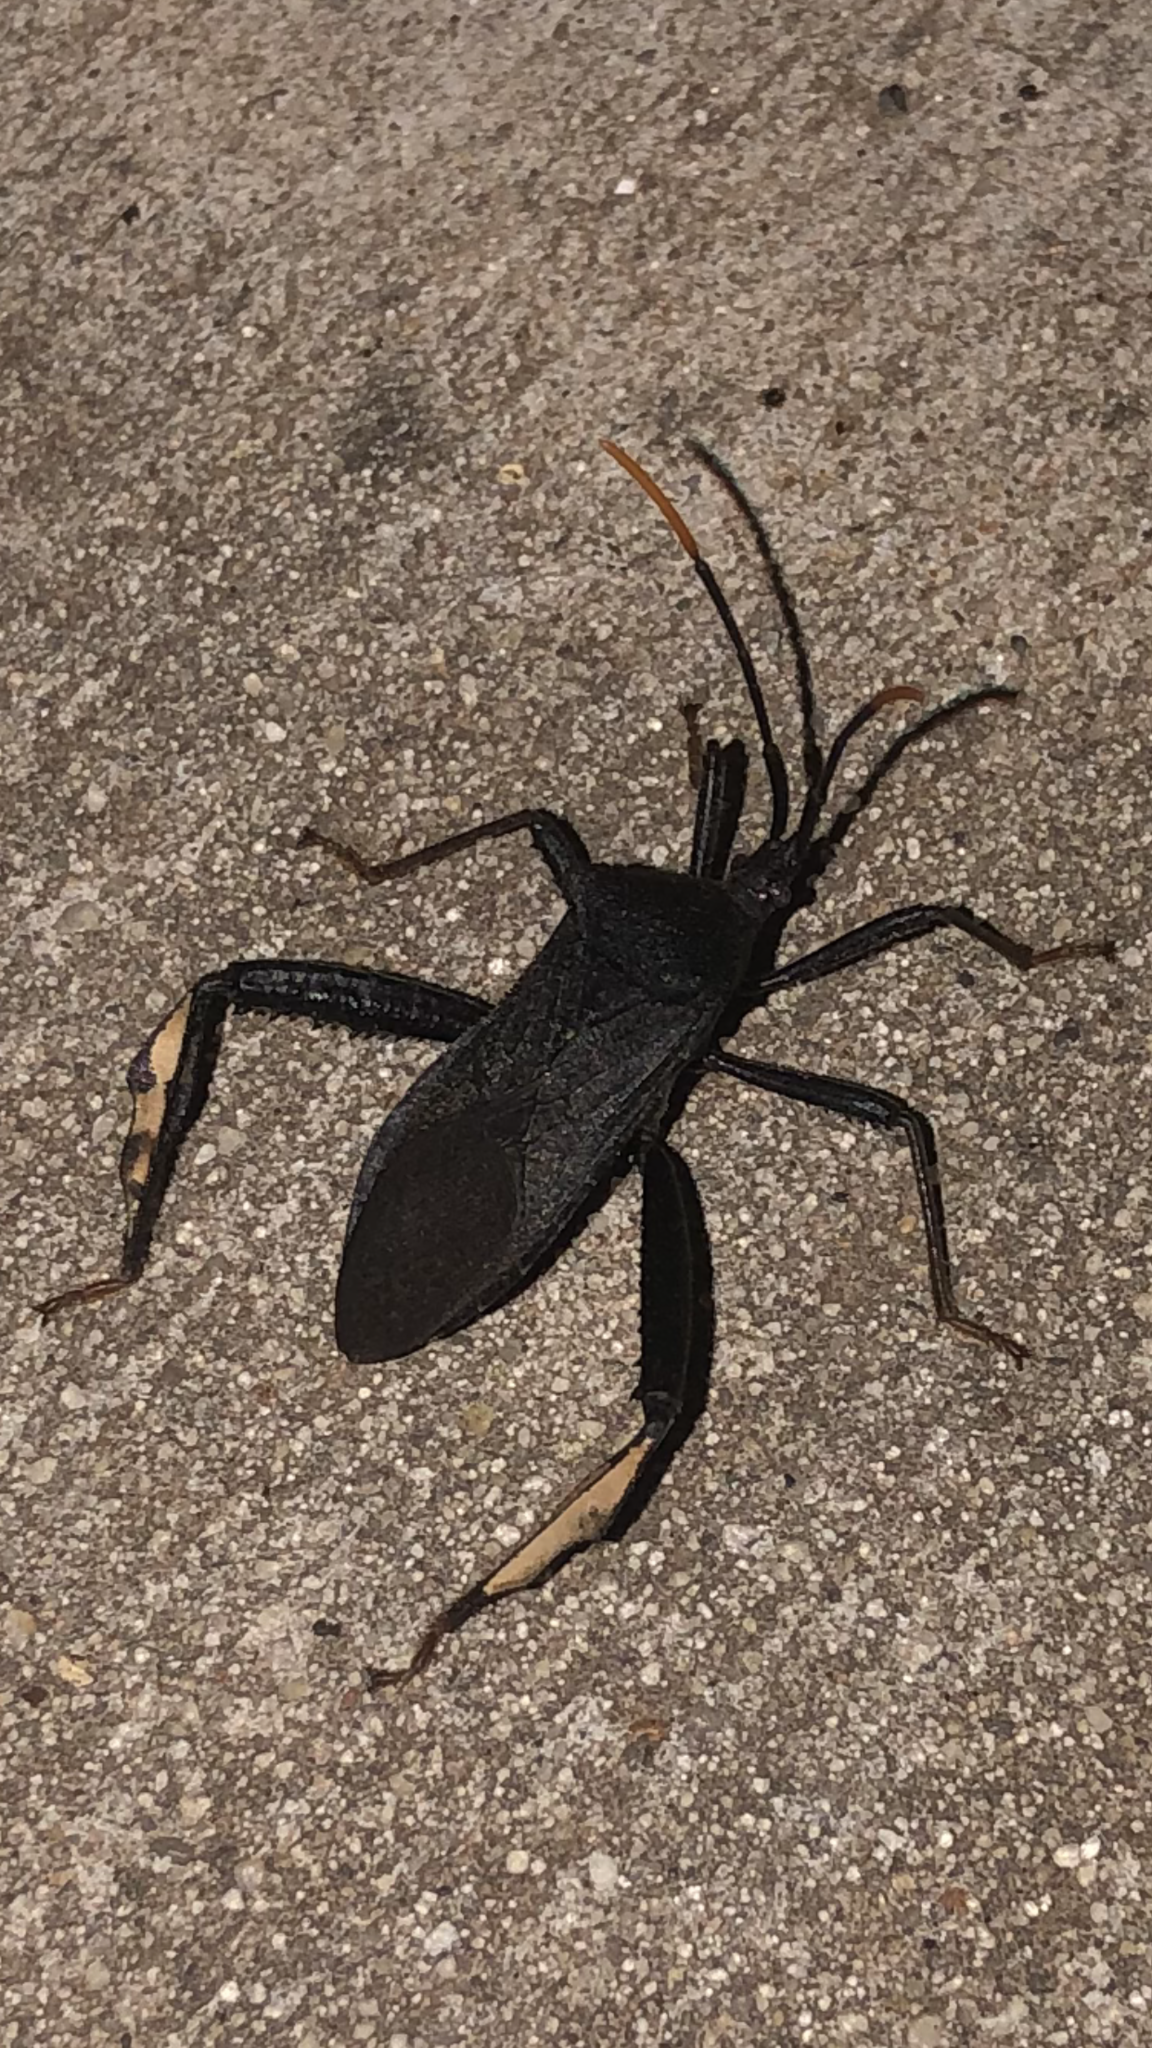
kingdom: Animalia
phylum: Arthropoda
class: Insecta
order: Hemiptera
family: Coreidae
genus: Acanthocephala
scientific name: Acanthocephala terminalis
